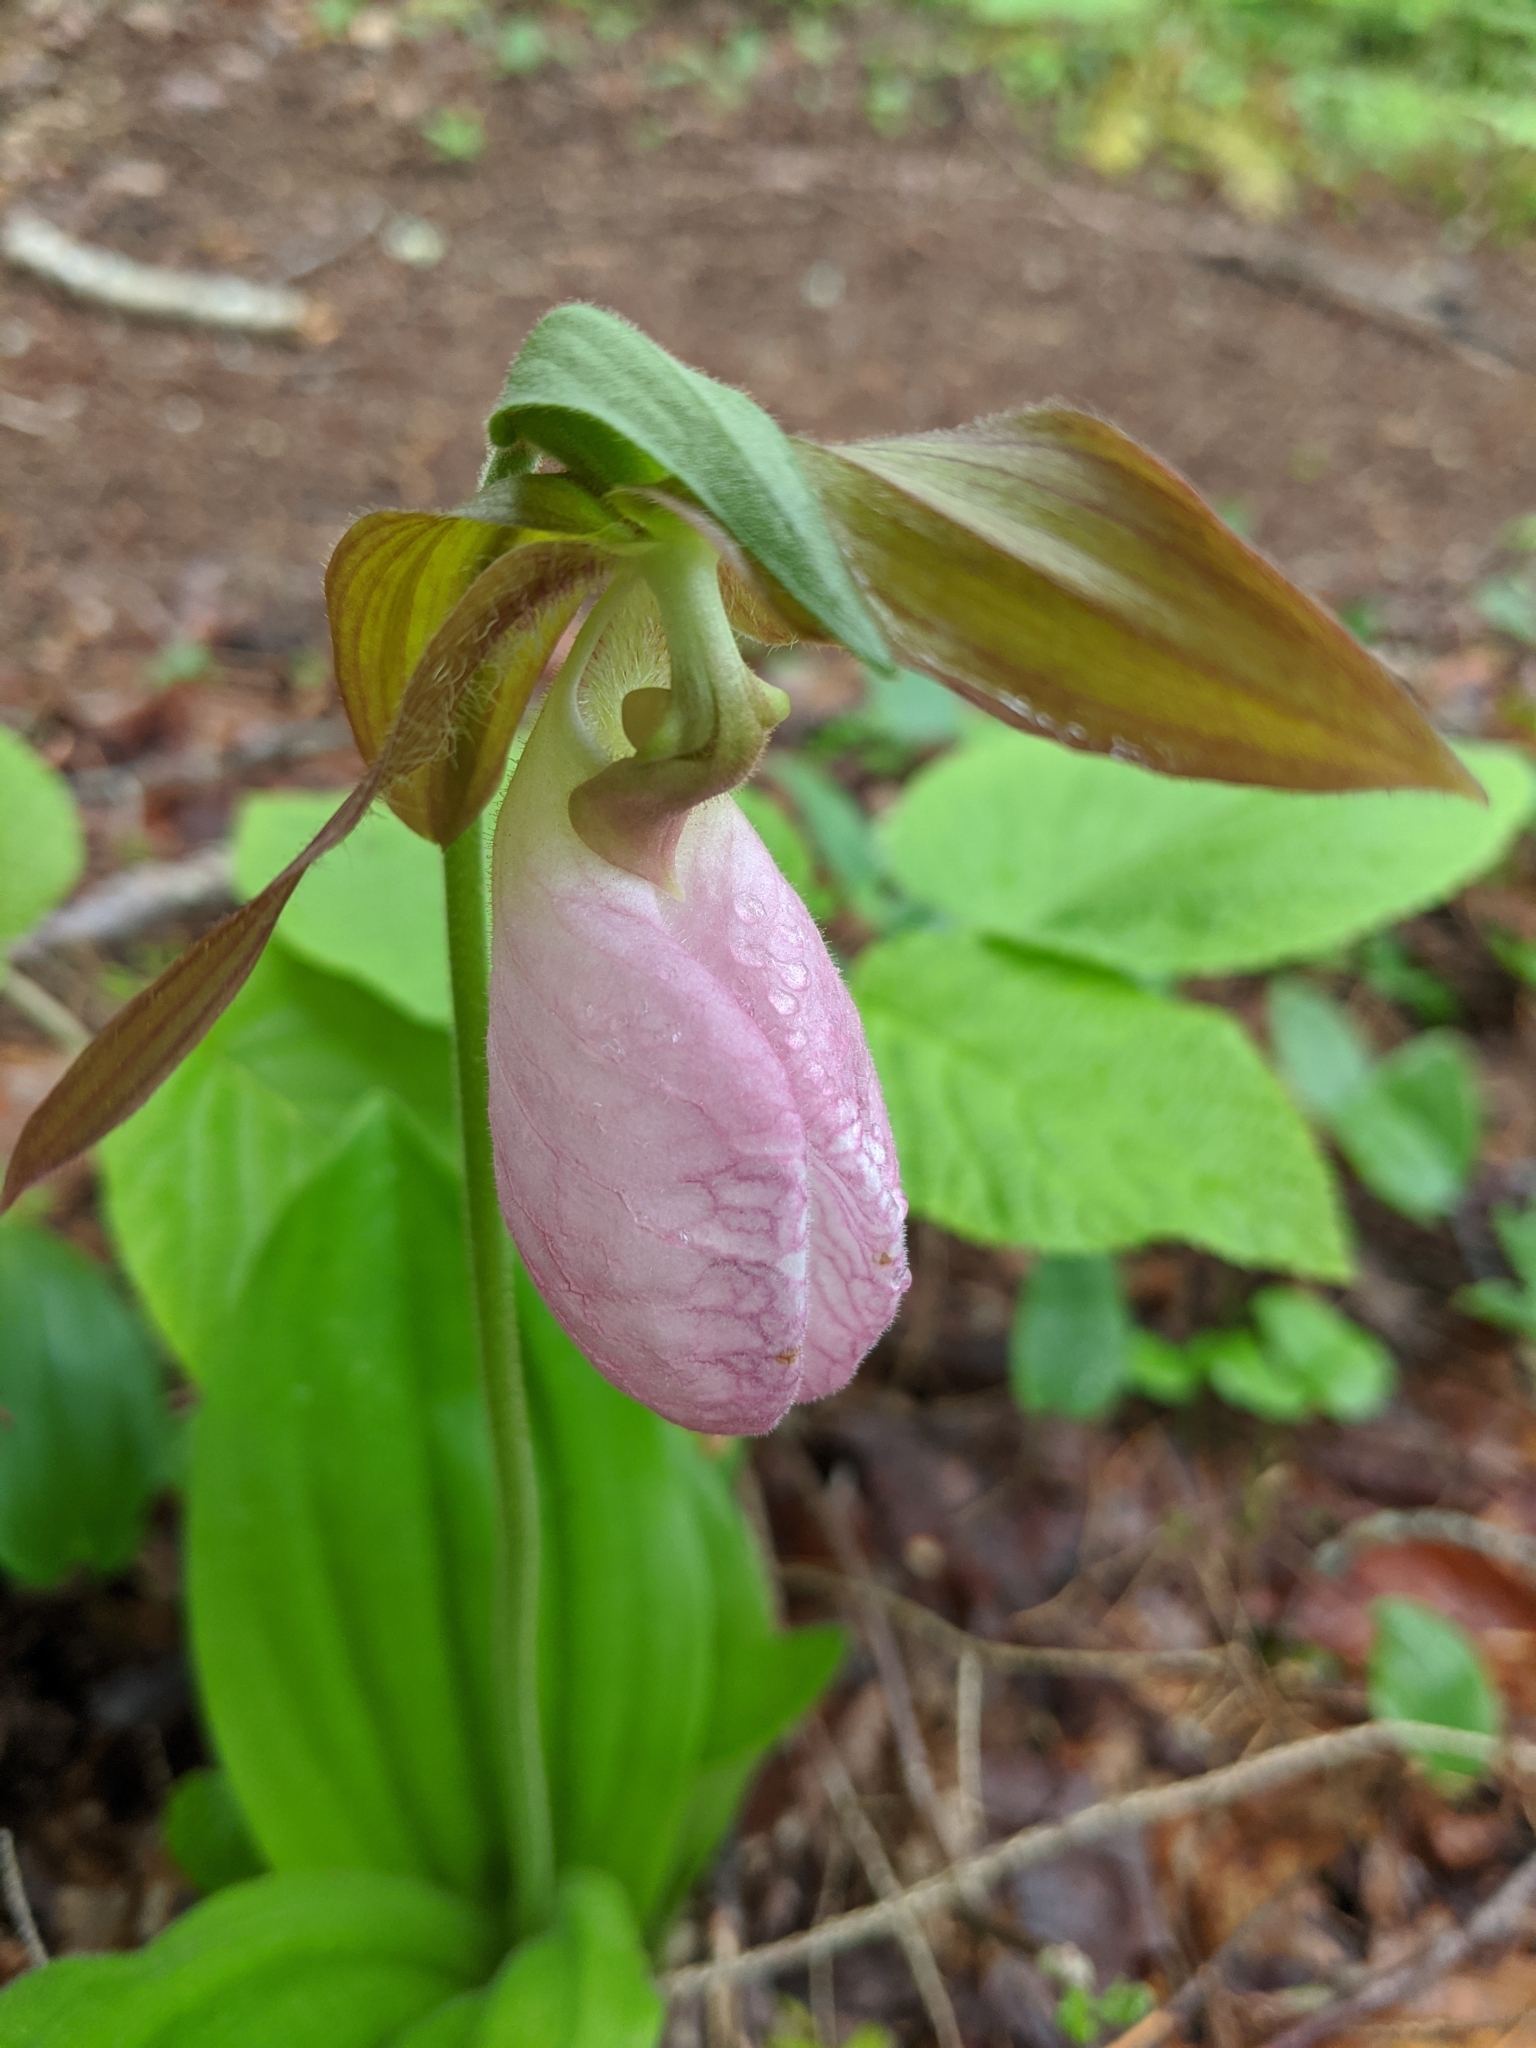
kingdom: Plantae
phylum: Tracheophyta
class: Liliopsida
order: Asparagales
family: Orchidaceae
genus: Cypripedium
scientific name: Cypripedium acaule
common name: Pink lady's-slipper
